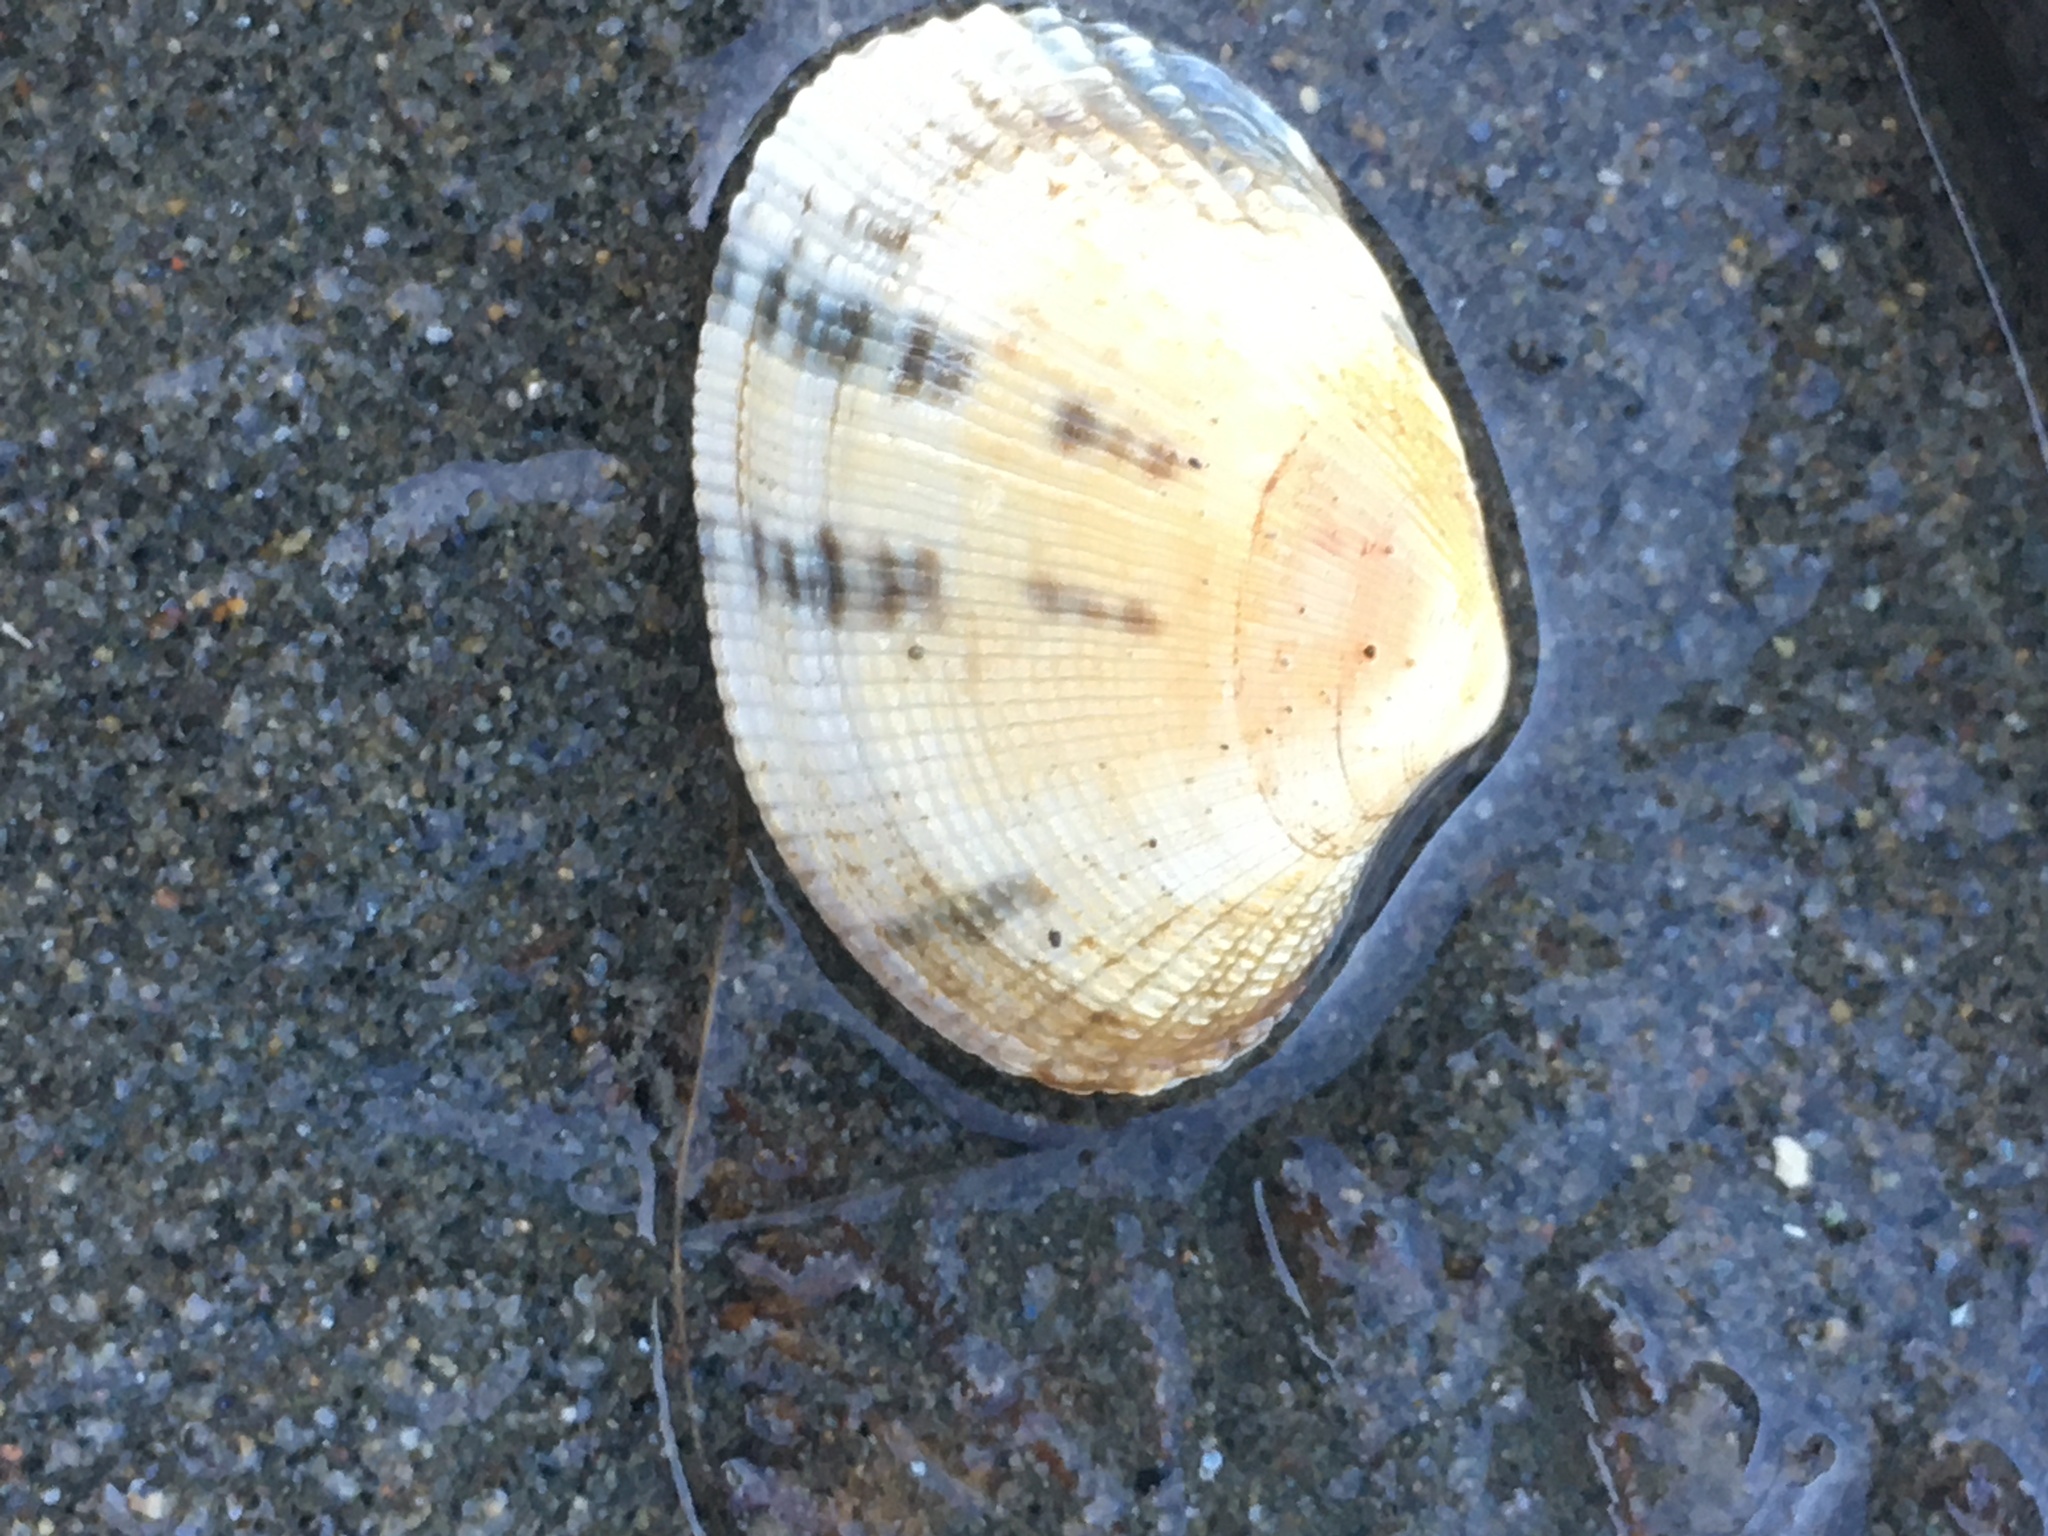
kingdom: Animalia
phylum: Mollusca
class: Bivalvia
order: Venerida
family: Veneridae
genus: Ruditapes
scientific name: Ruditapes philippinarum
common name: Manila clam
